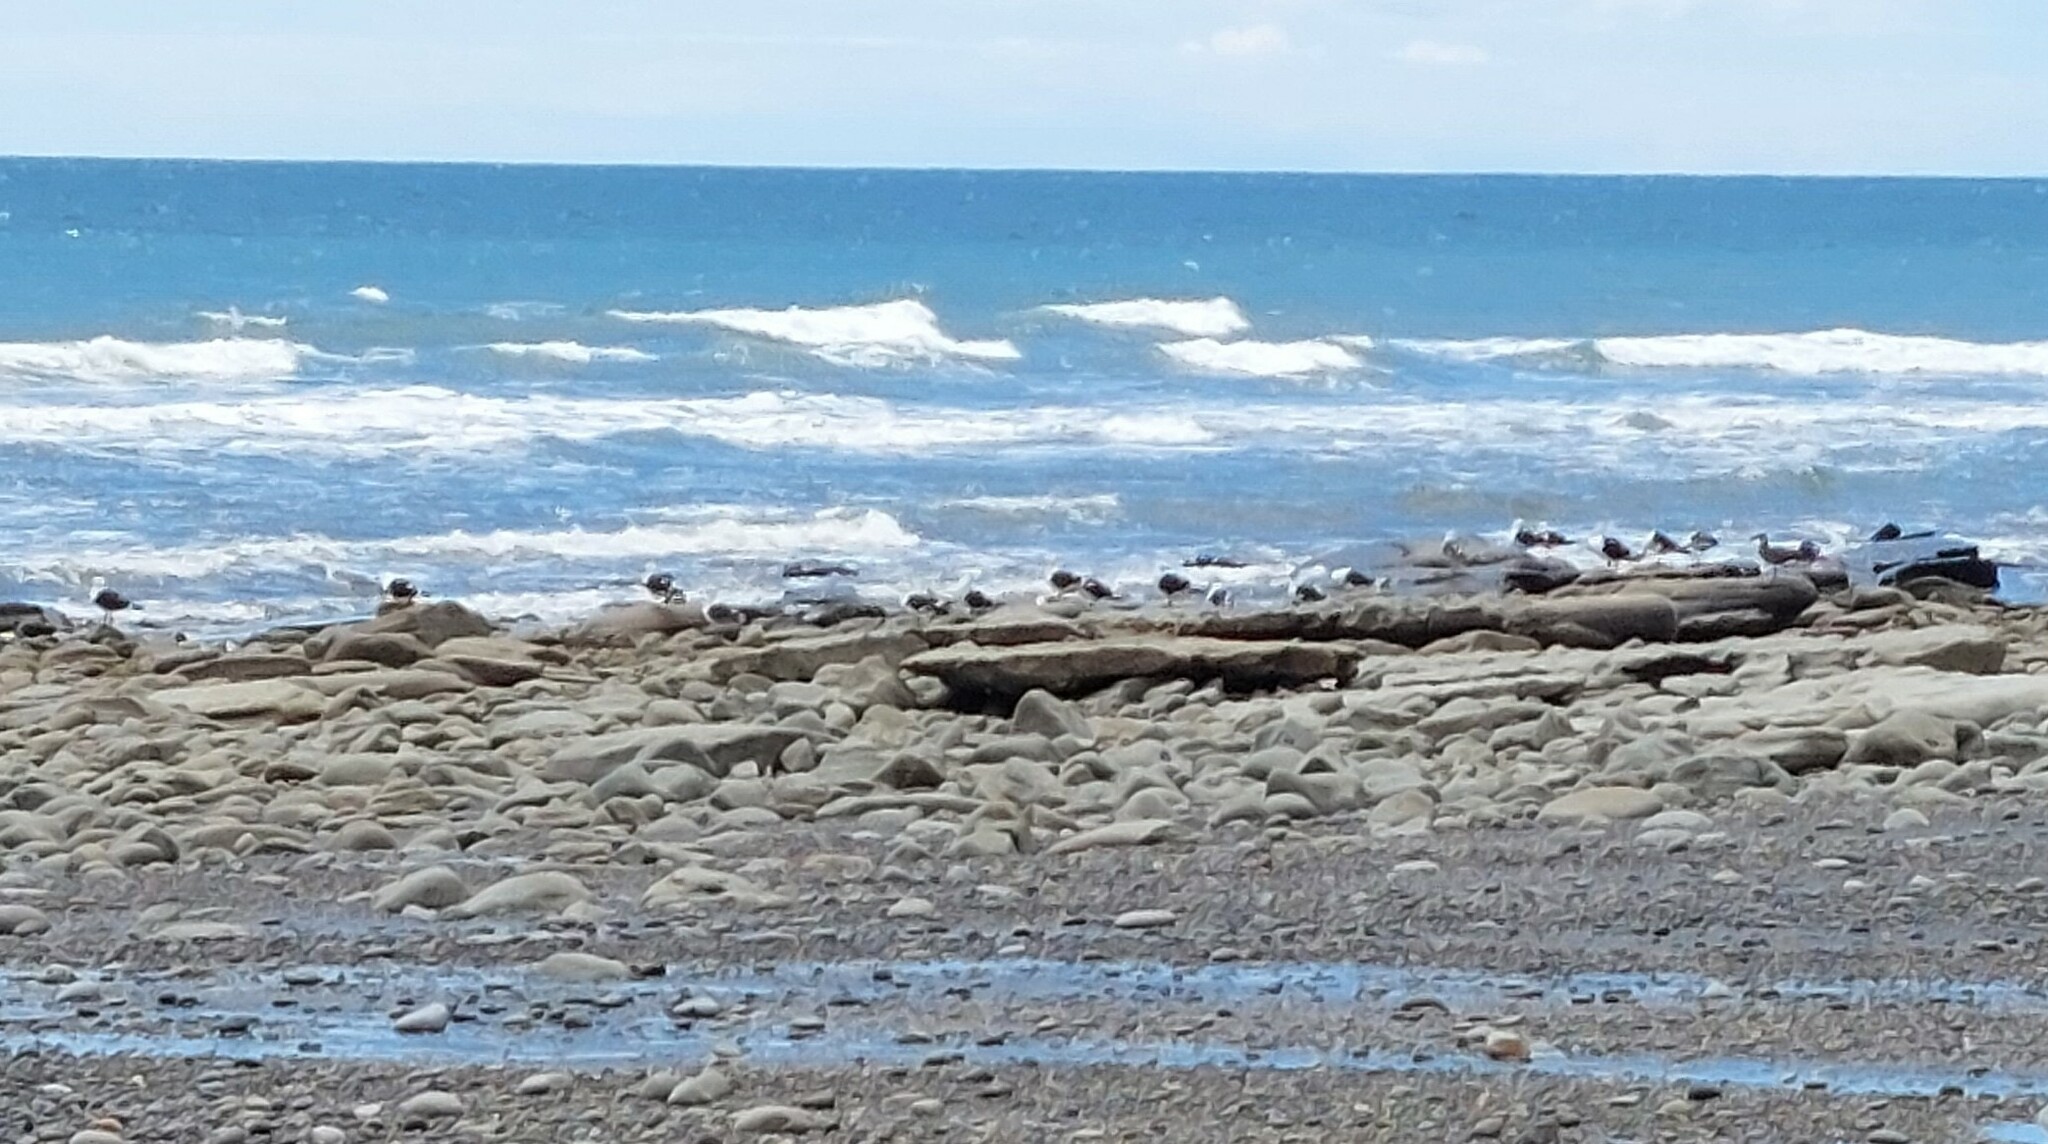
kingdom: Animalia
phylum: Chordata
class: Aves
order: Charadriiformes
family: Laridae
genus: Larus
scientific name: Larus dominicanus
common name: Kelp gull
